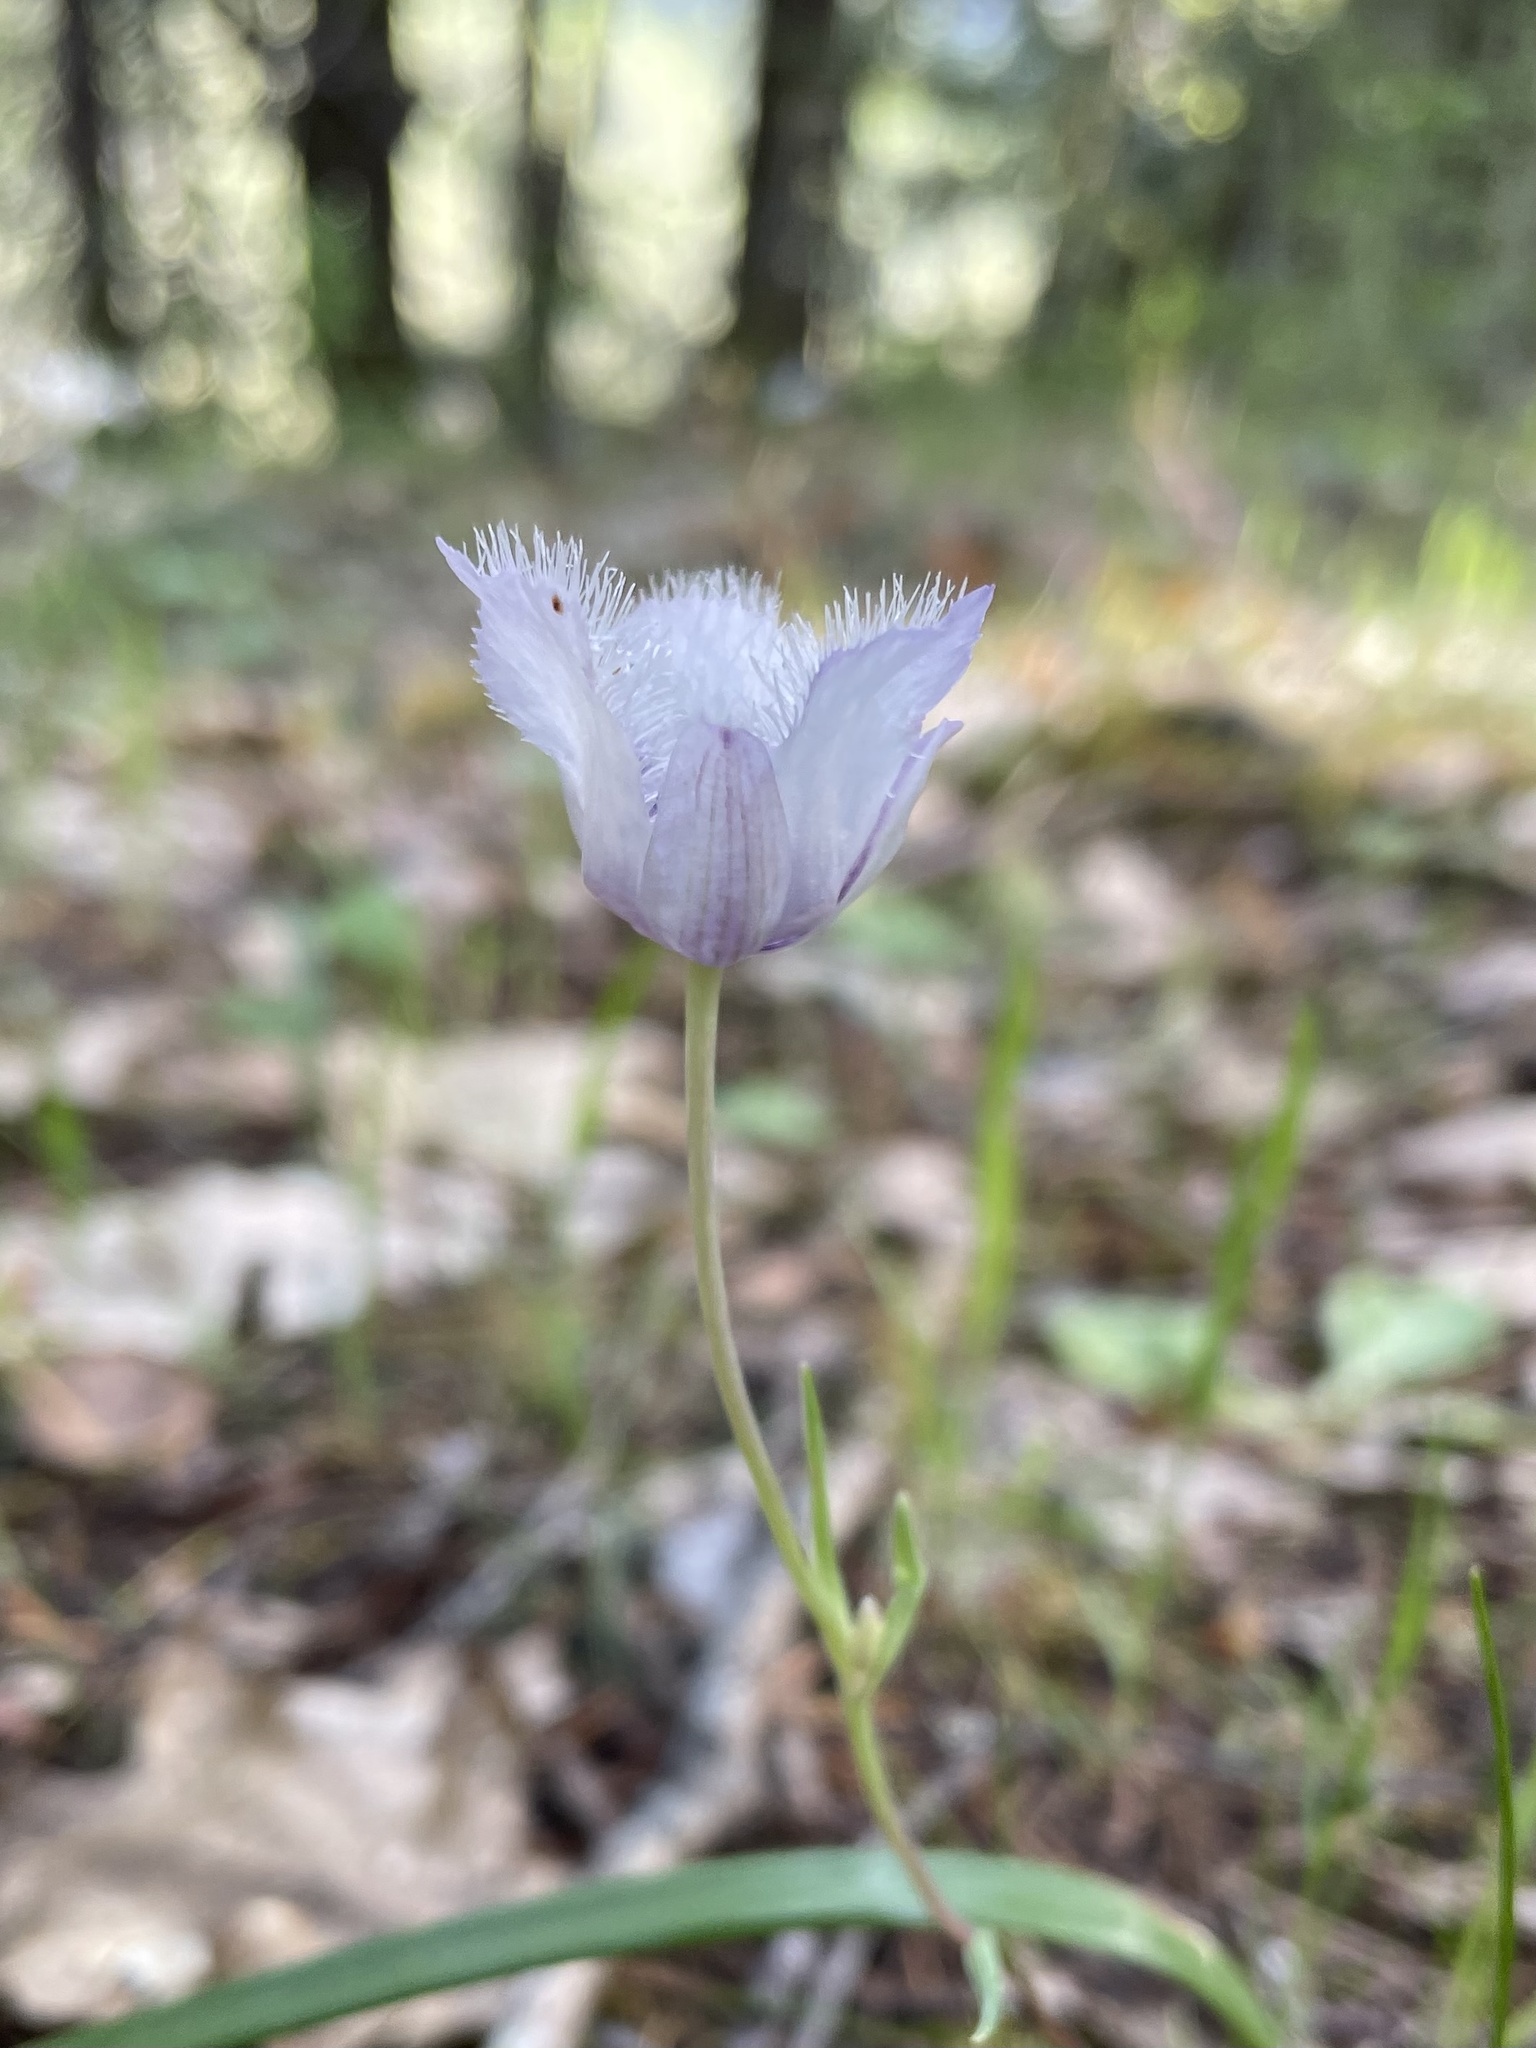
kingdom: Plantae
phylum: Tracheophyta
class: Liliopsida
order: Liliales
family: Liliaceae
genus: Calochortus
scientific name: Calochortus tolmiei
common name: Pussy-ears
